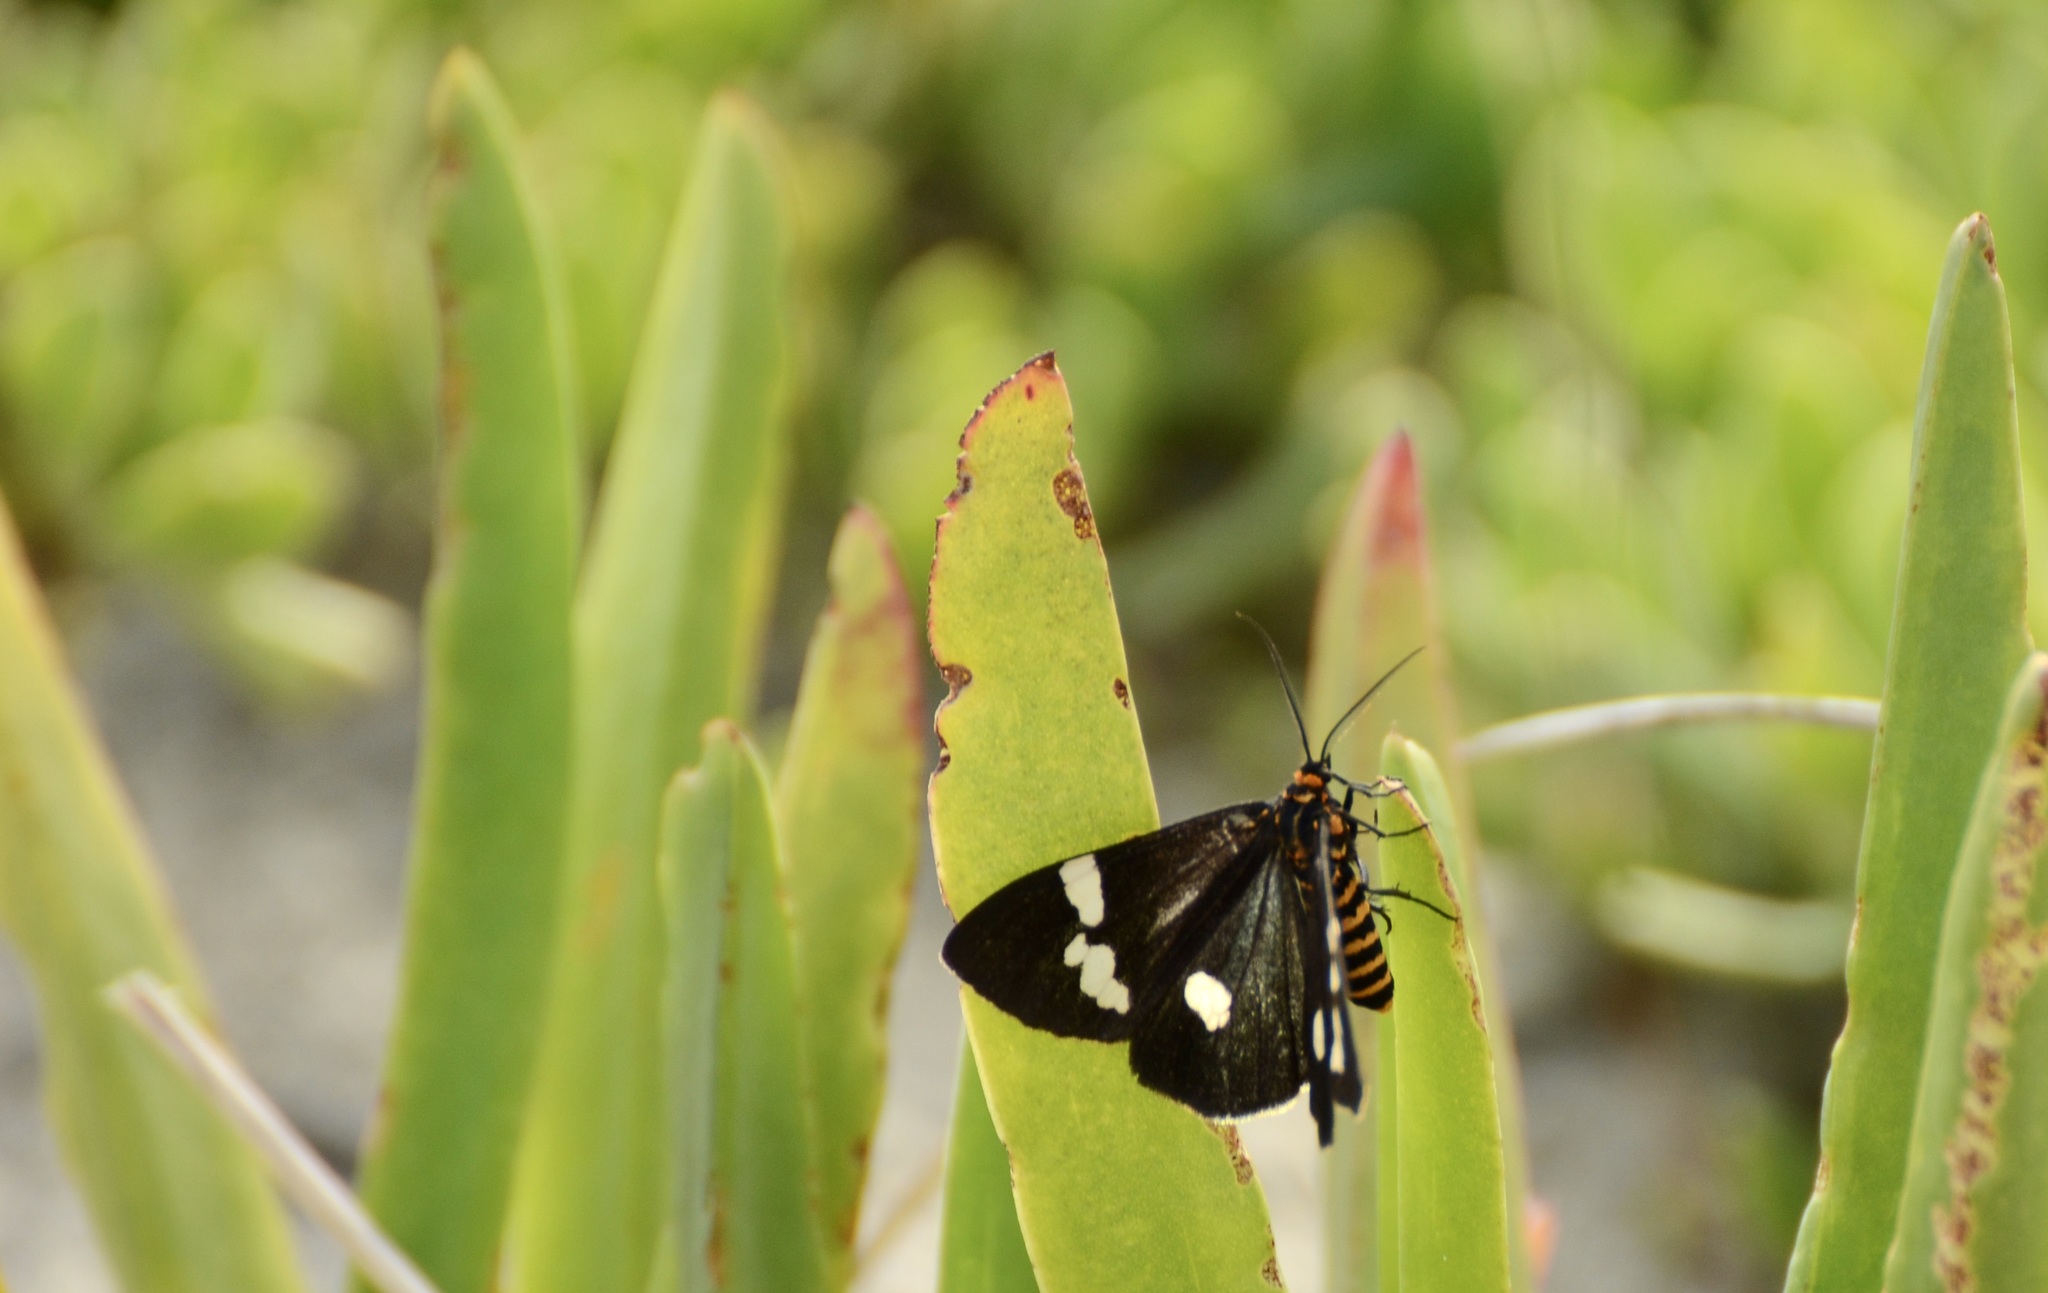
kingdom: Animalia
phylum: Arthropoda
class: Insecta
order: Lepidoptera
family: Erebidae
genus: Nyctemera
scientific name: Nyctemera annulatum
